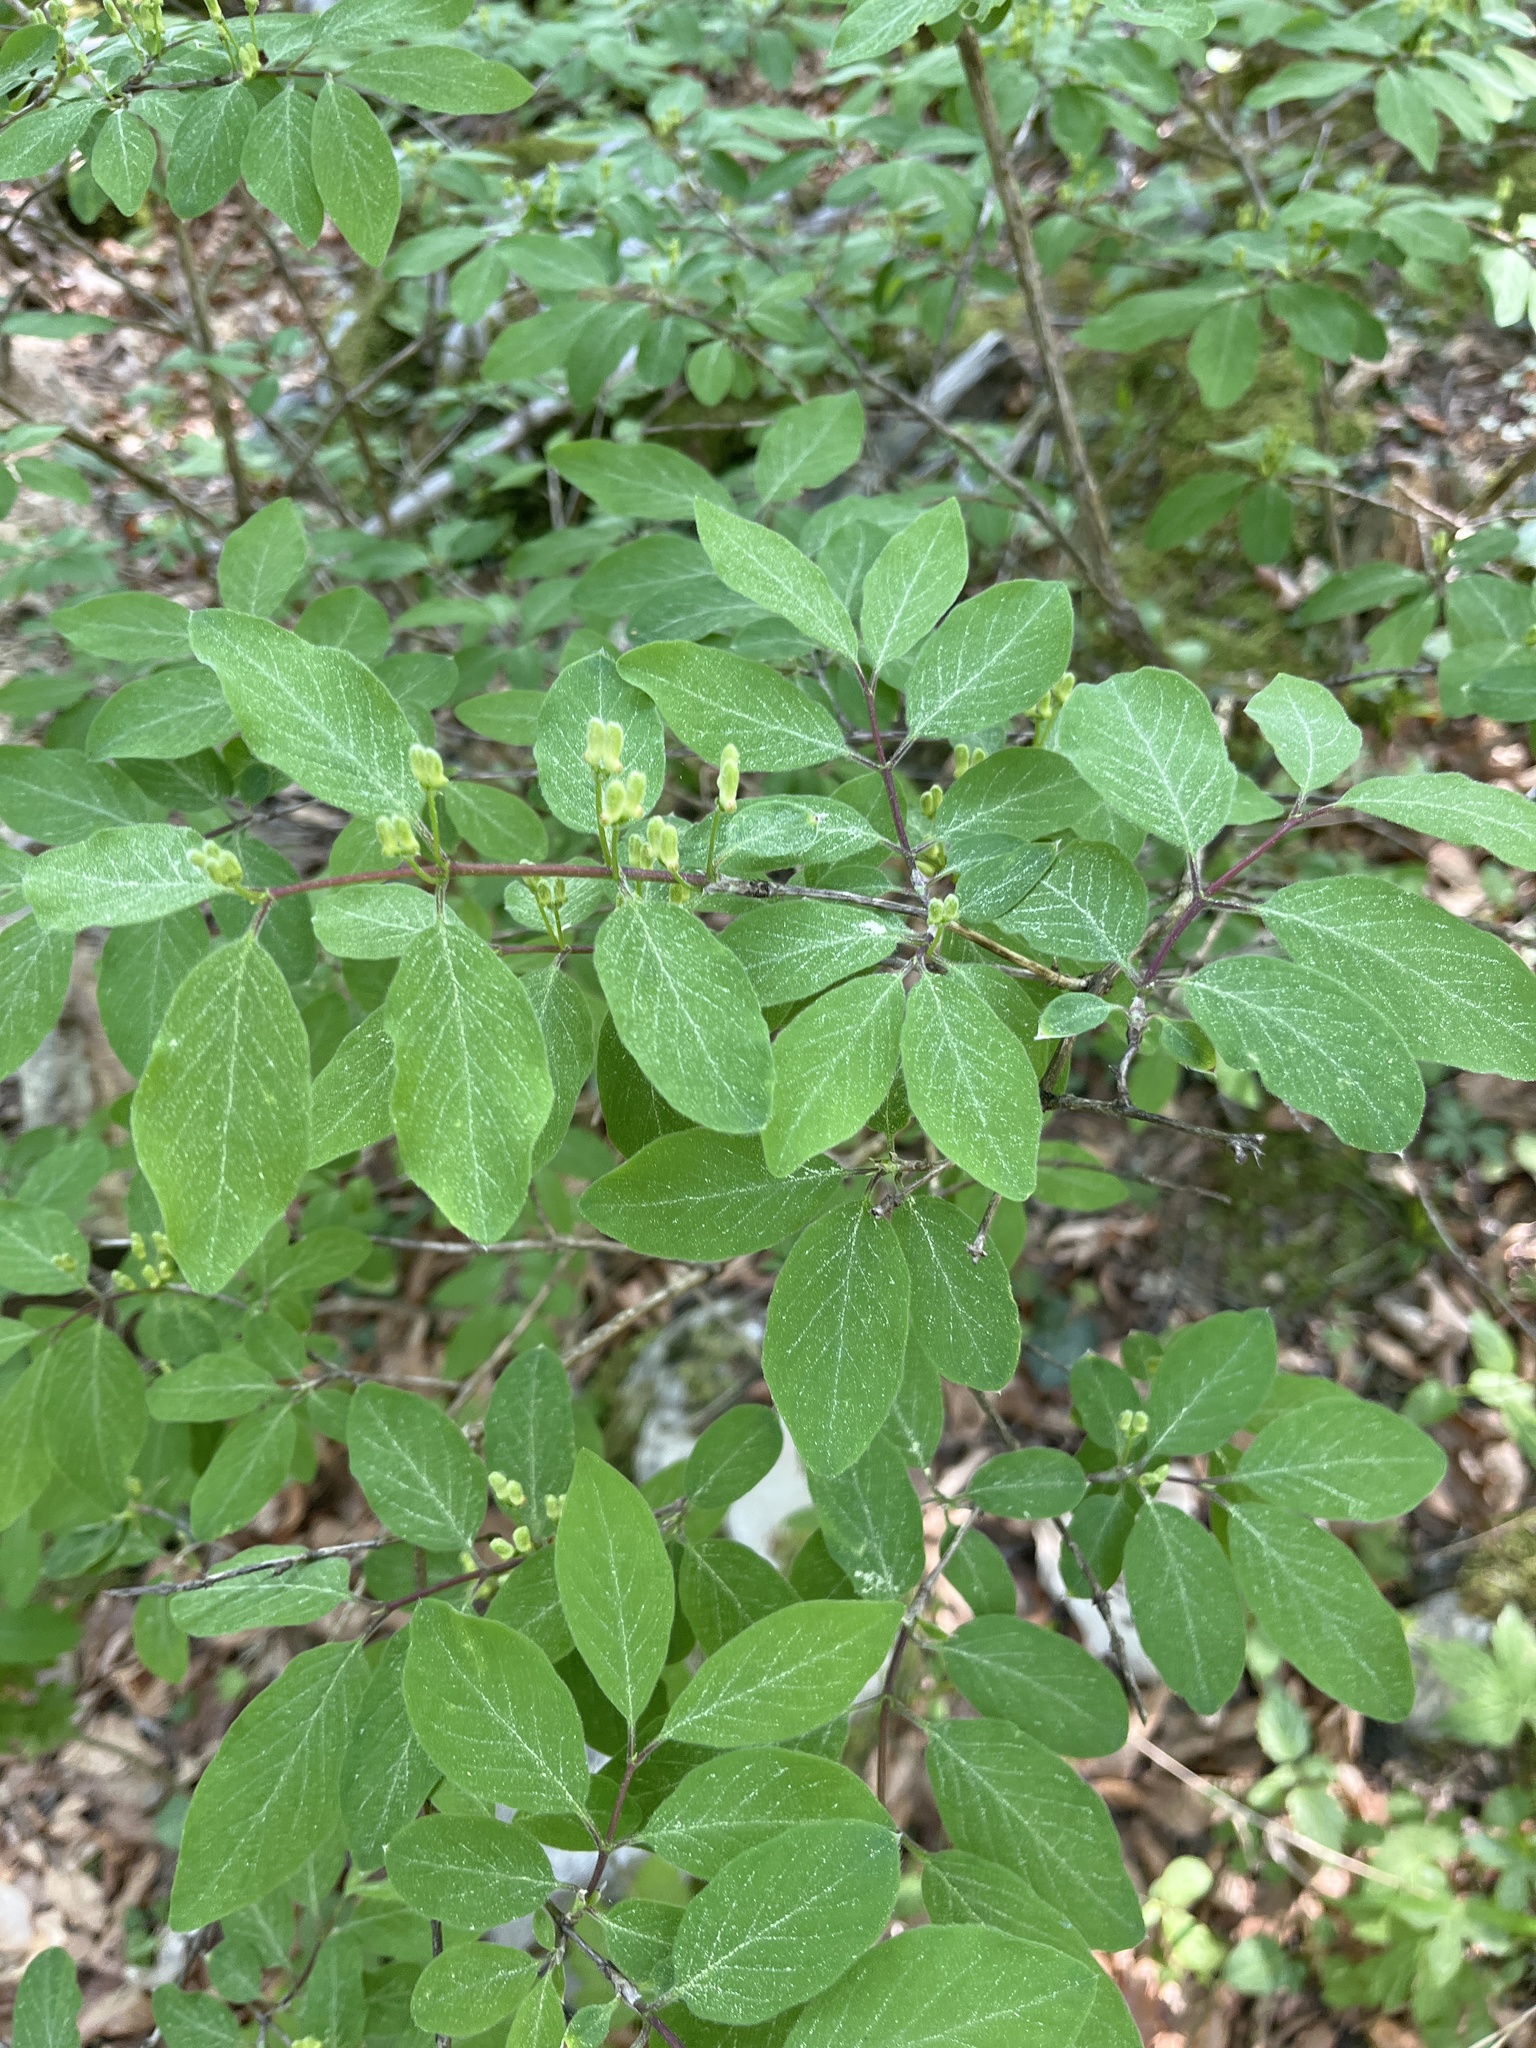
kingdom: Plantae
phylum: Tracheophyta
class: Magnoliopsida
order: Dipsacales
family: Caprifoliaceae
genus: Lonicera
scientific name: Lonicera xylosteum
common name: Fly honeysuckle
